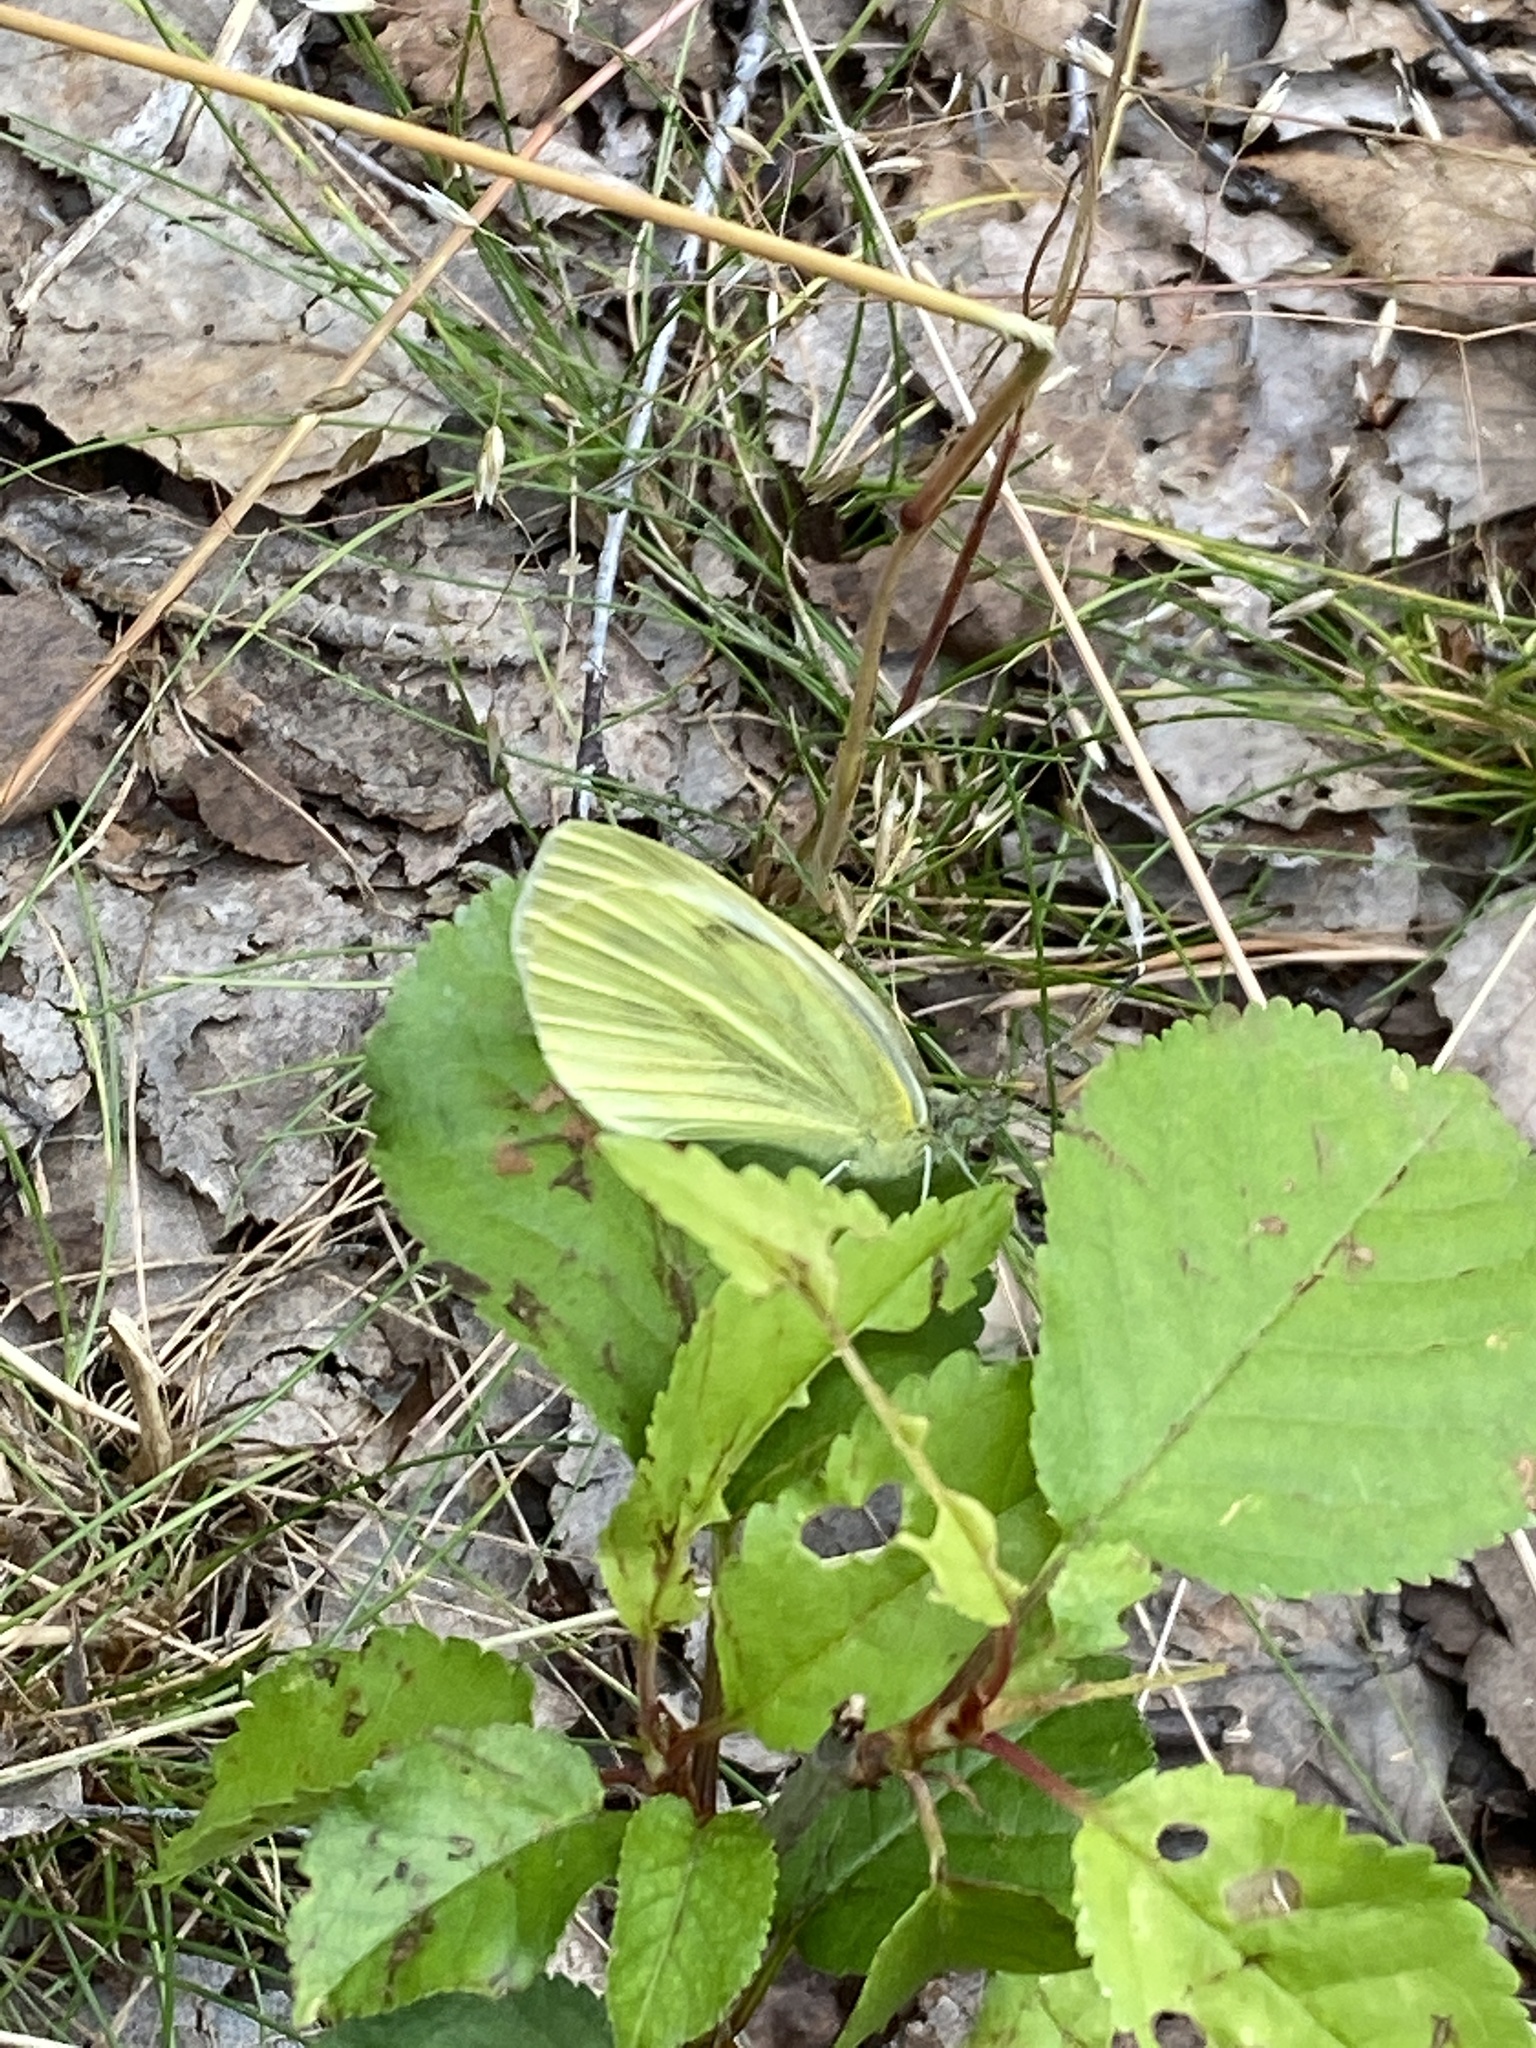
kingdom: Animalia
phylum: Arthropoda
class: Insecta
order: Lepidoptera
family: Pieridae
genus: Pieris
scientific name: Pieris napi
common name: Green-veined white
